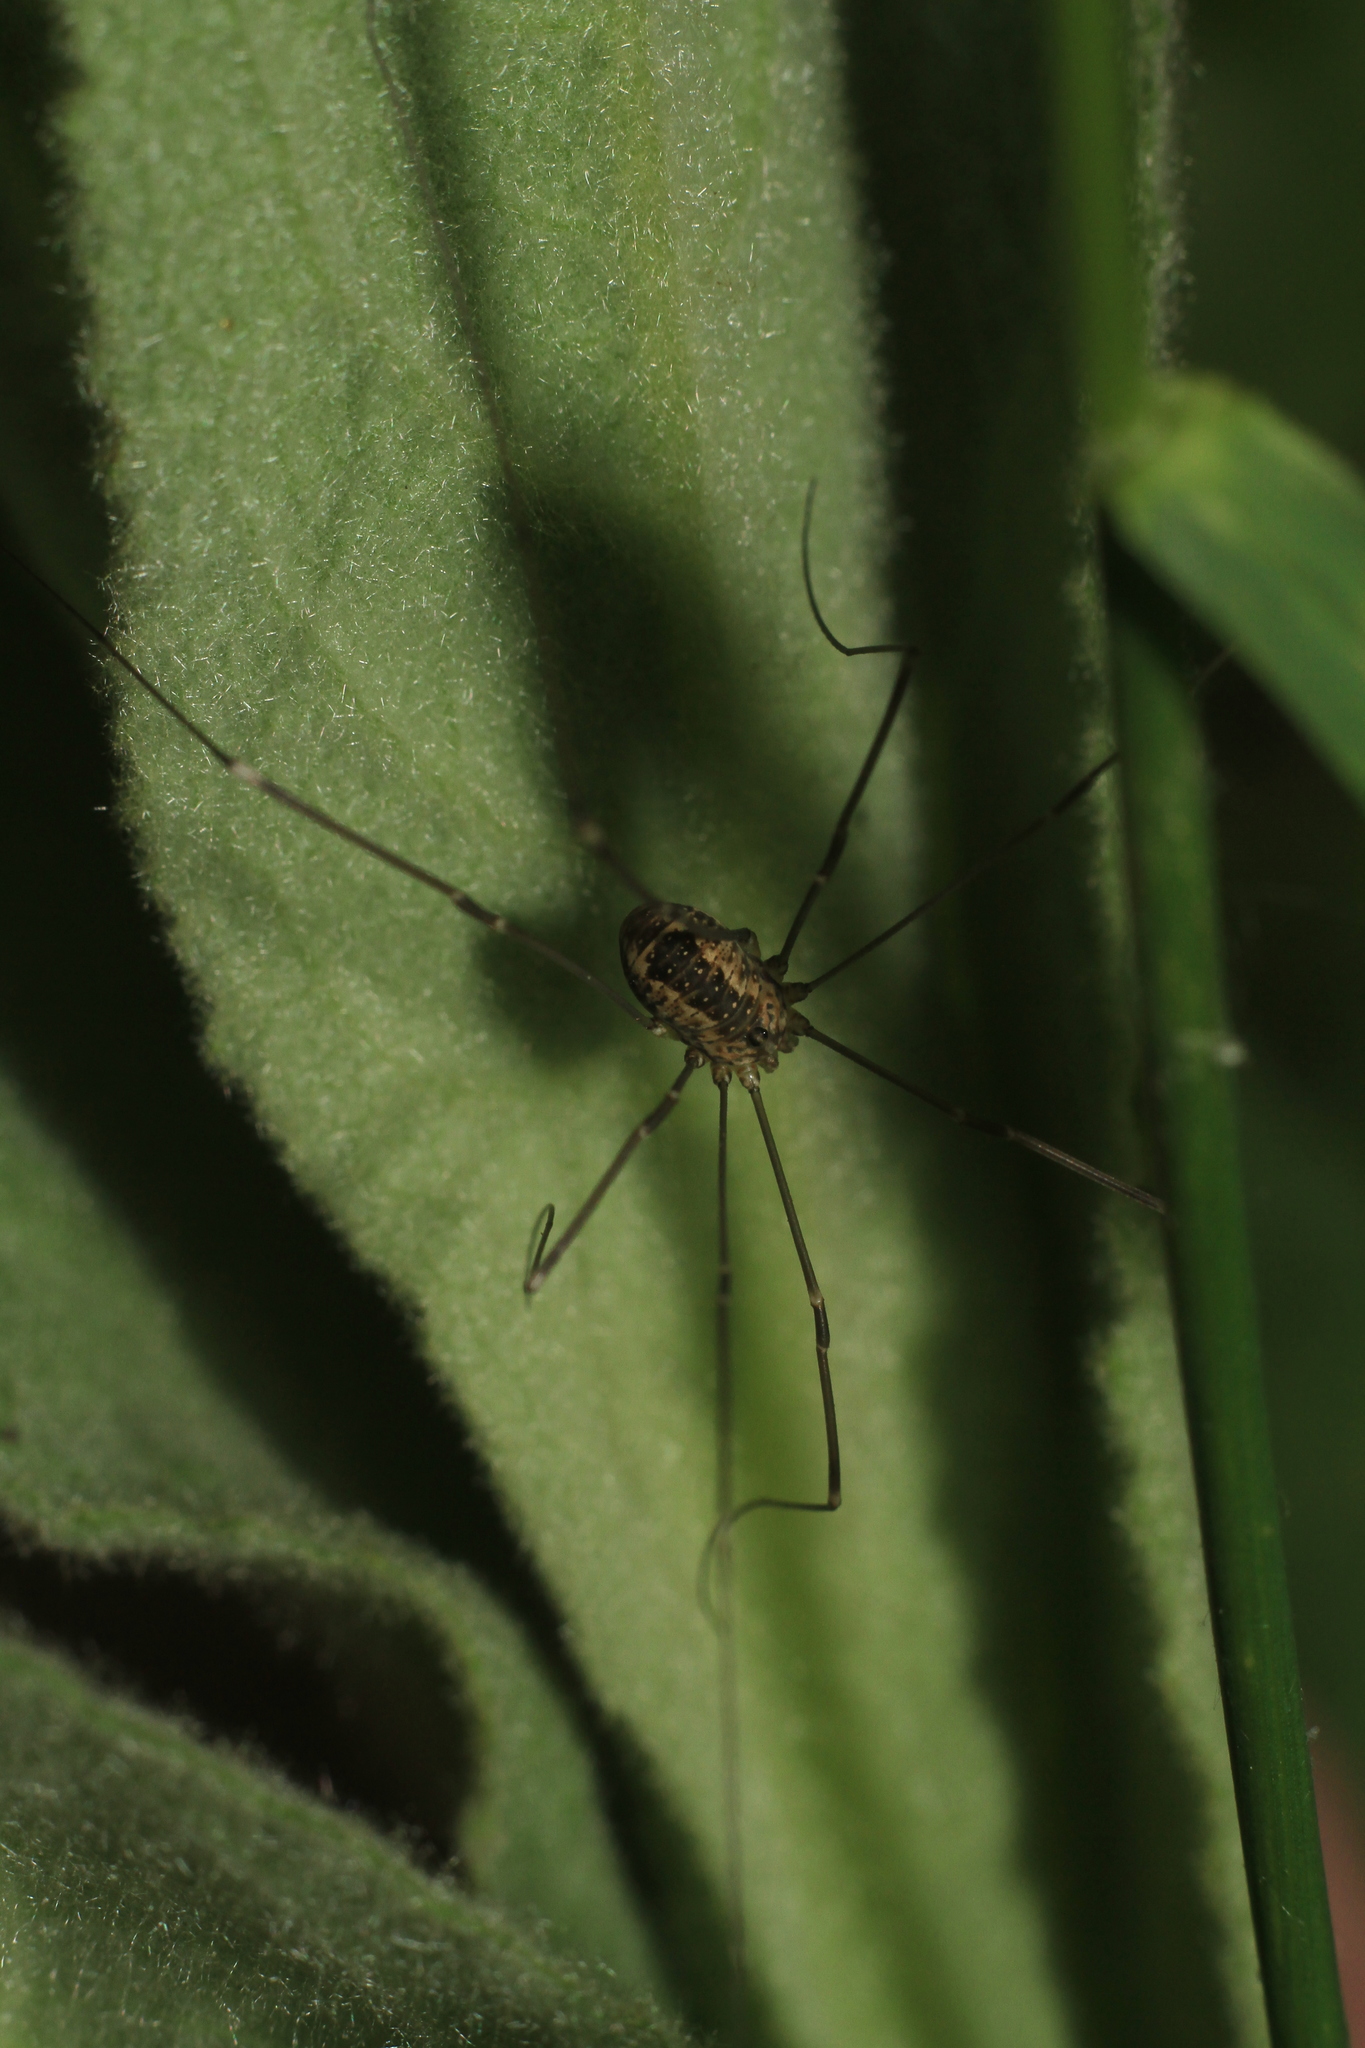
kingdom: Animalia
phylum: Arthropoda
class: Arachnida
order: Opiliones
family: Sclerosomatidae
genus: Leiobunum
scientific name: Leiobunum rotundum
